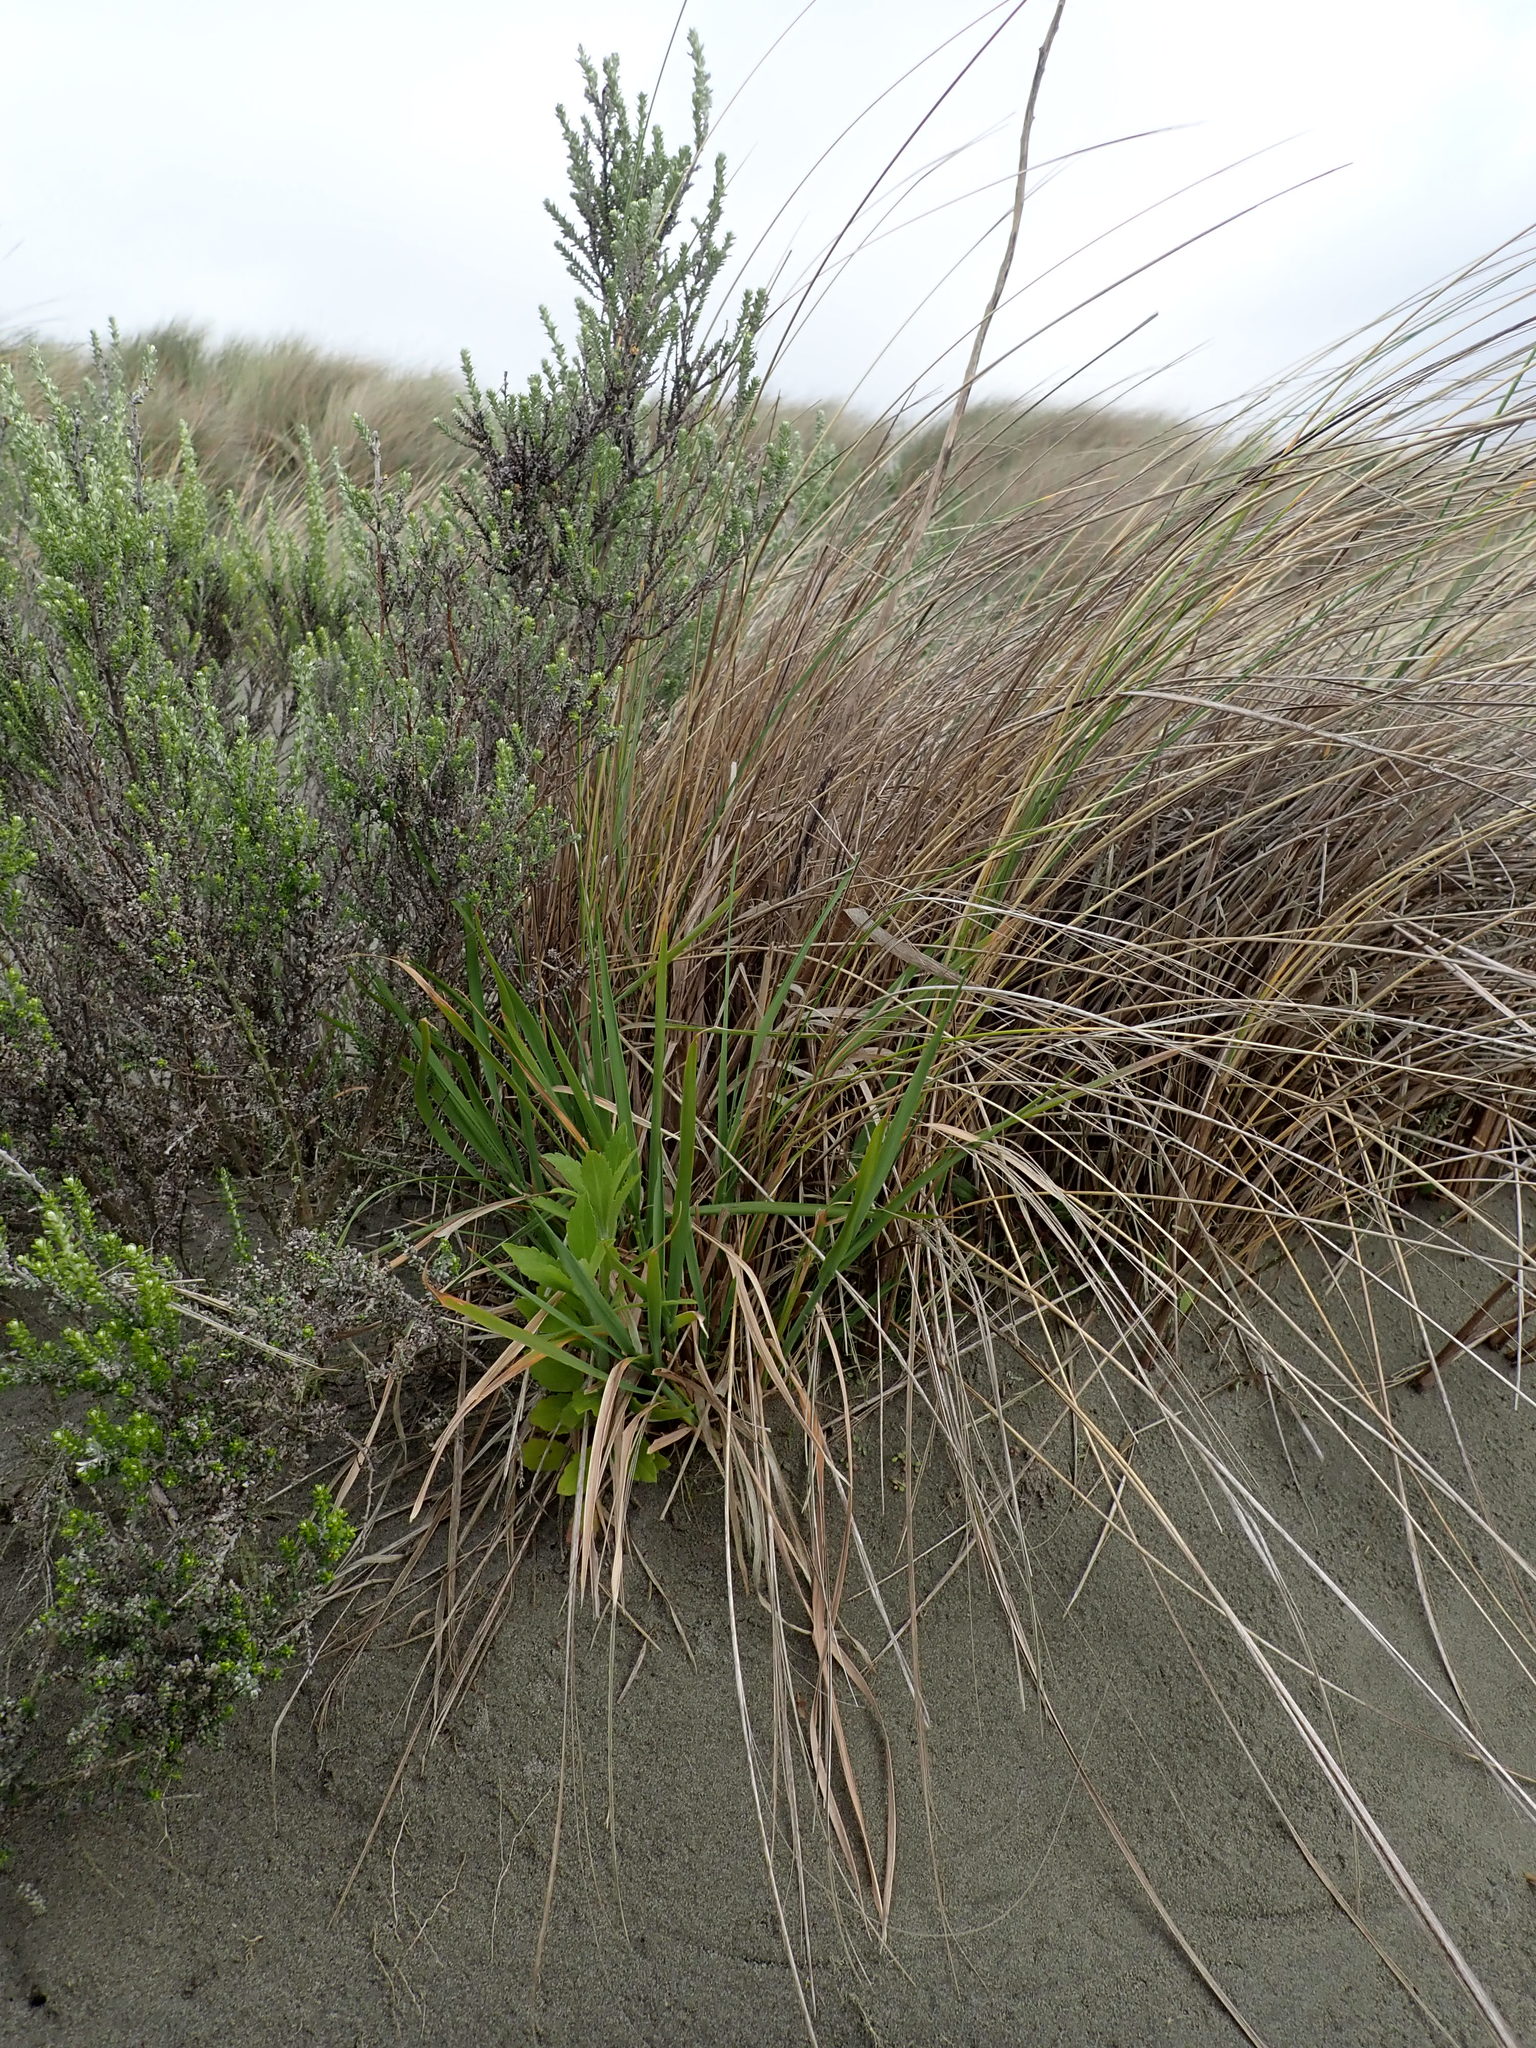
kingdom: Plantae
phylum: Tracheophyta
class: Liliopsida
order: Poales
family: Poaceae
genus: Lachnagrostis
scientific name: Lachnagrostis billardierei
